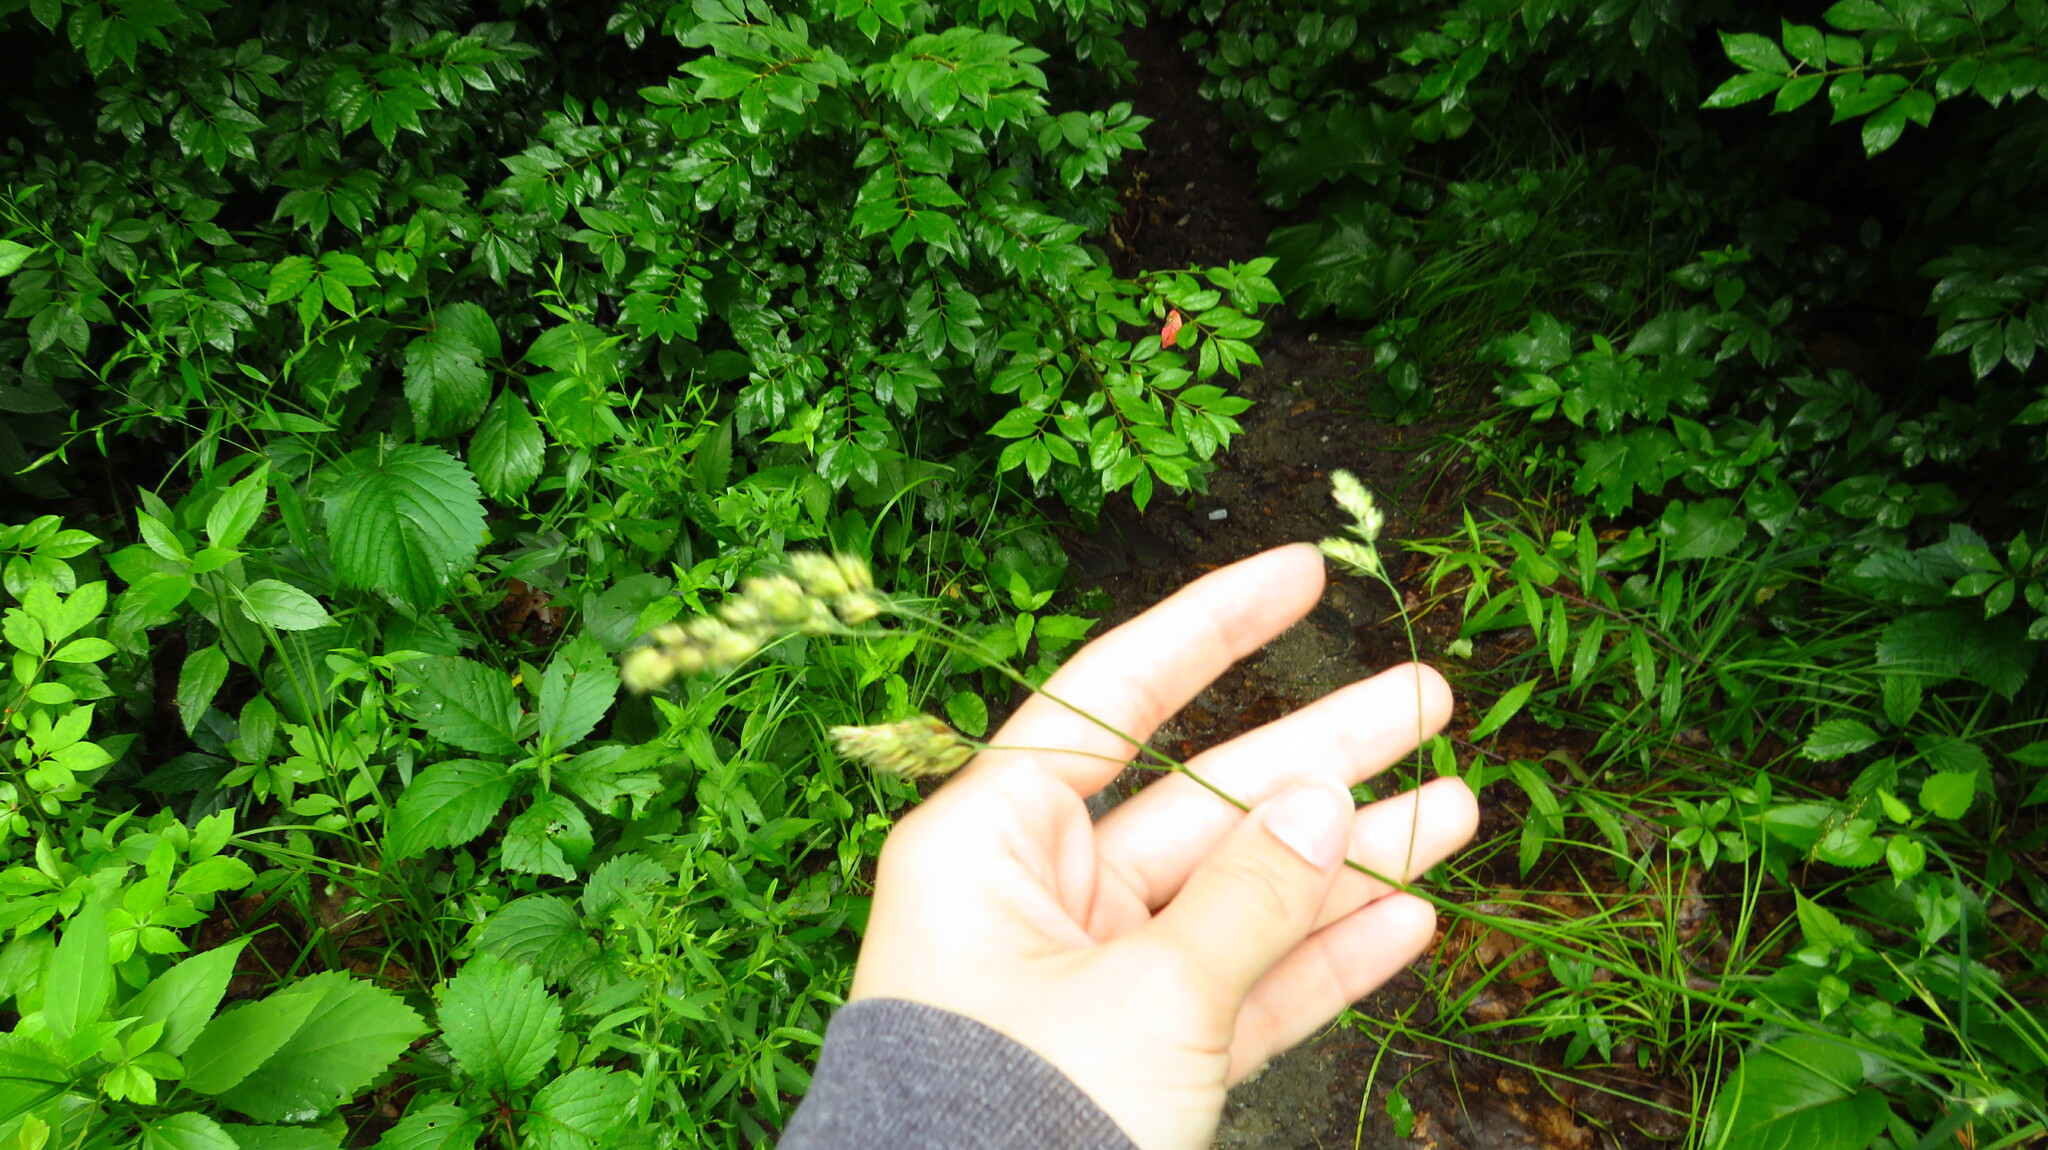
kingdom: Plantae
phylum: Tracheophyta
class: Liliopsida
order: Poales
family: Poaceae
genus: Dactylis
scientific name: Dactylis glomerata
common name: Orchardgrass
